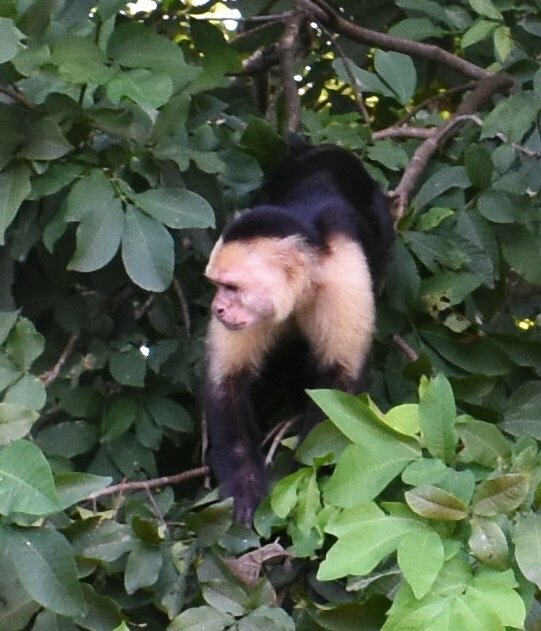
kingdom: Animalia
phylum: Chordata
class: Mammalia
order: Primates
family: Cebidae
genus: Cebus
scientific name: Cebus imitator
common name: Panamanian white-faced capuchin
